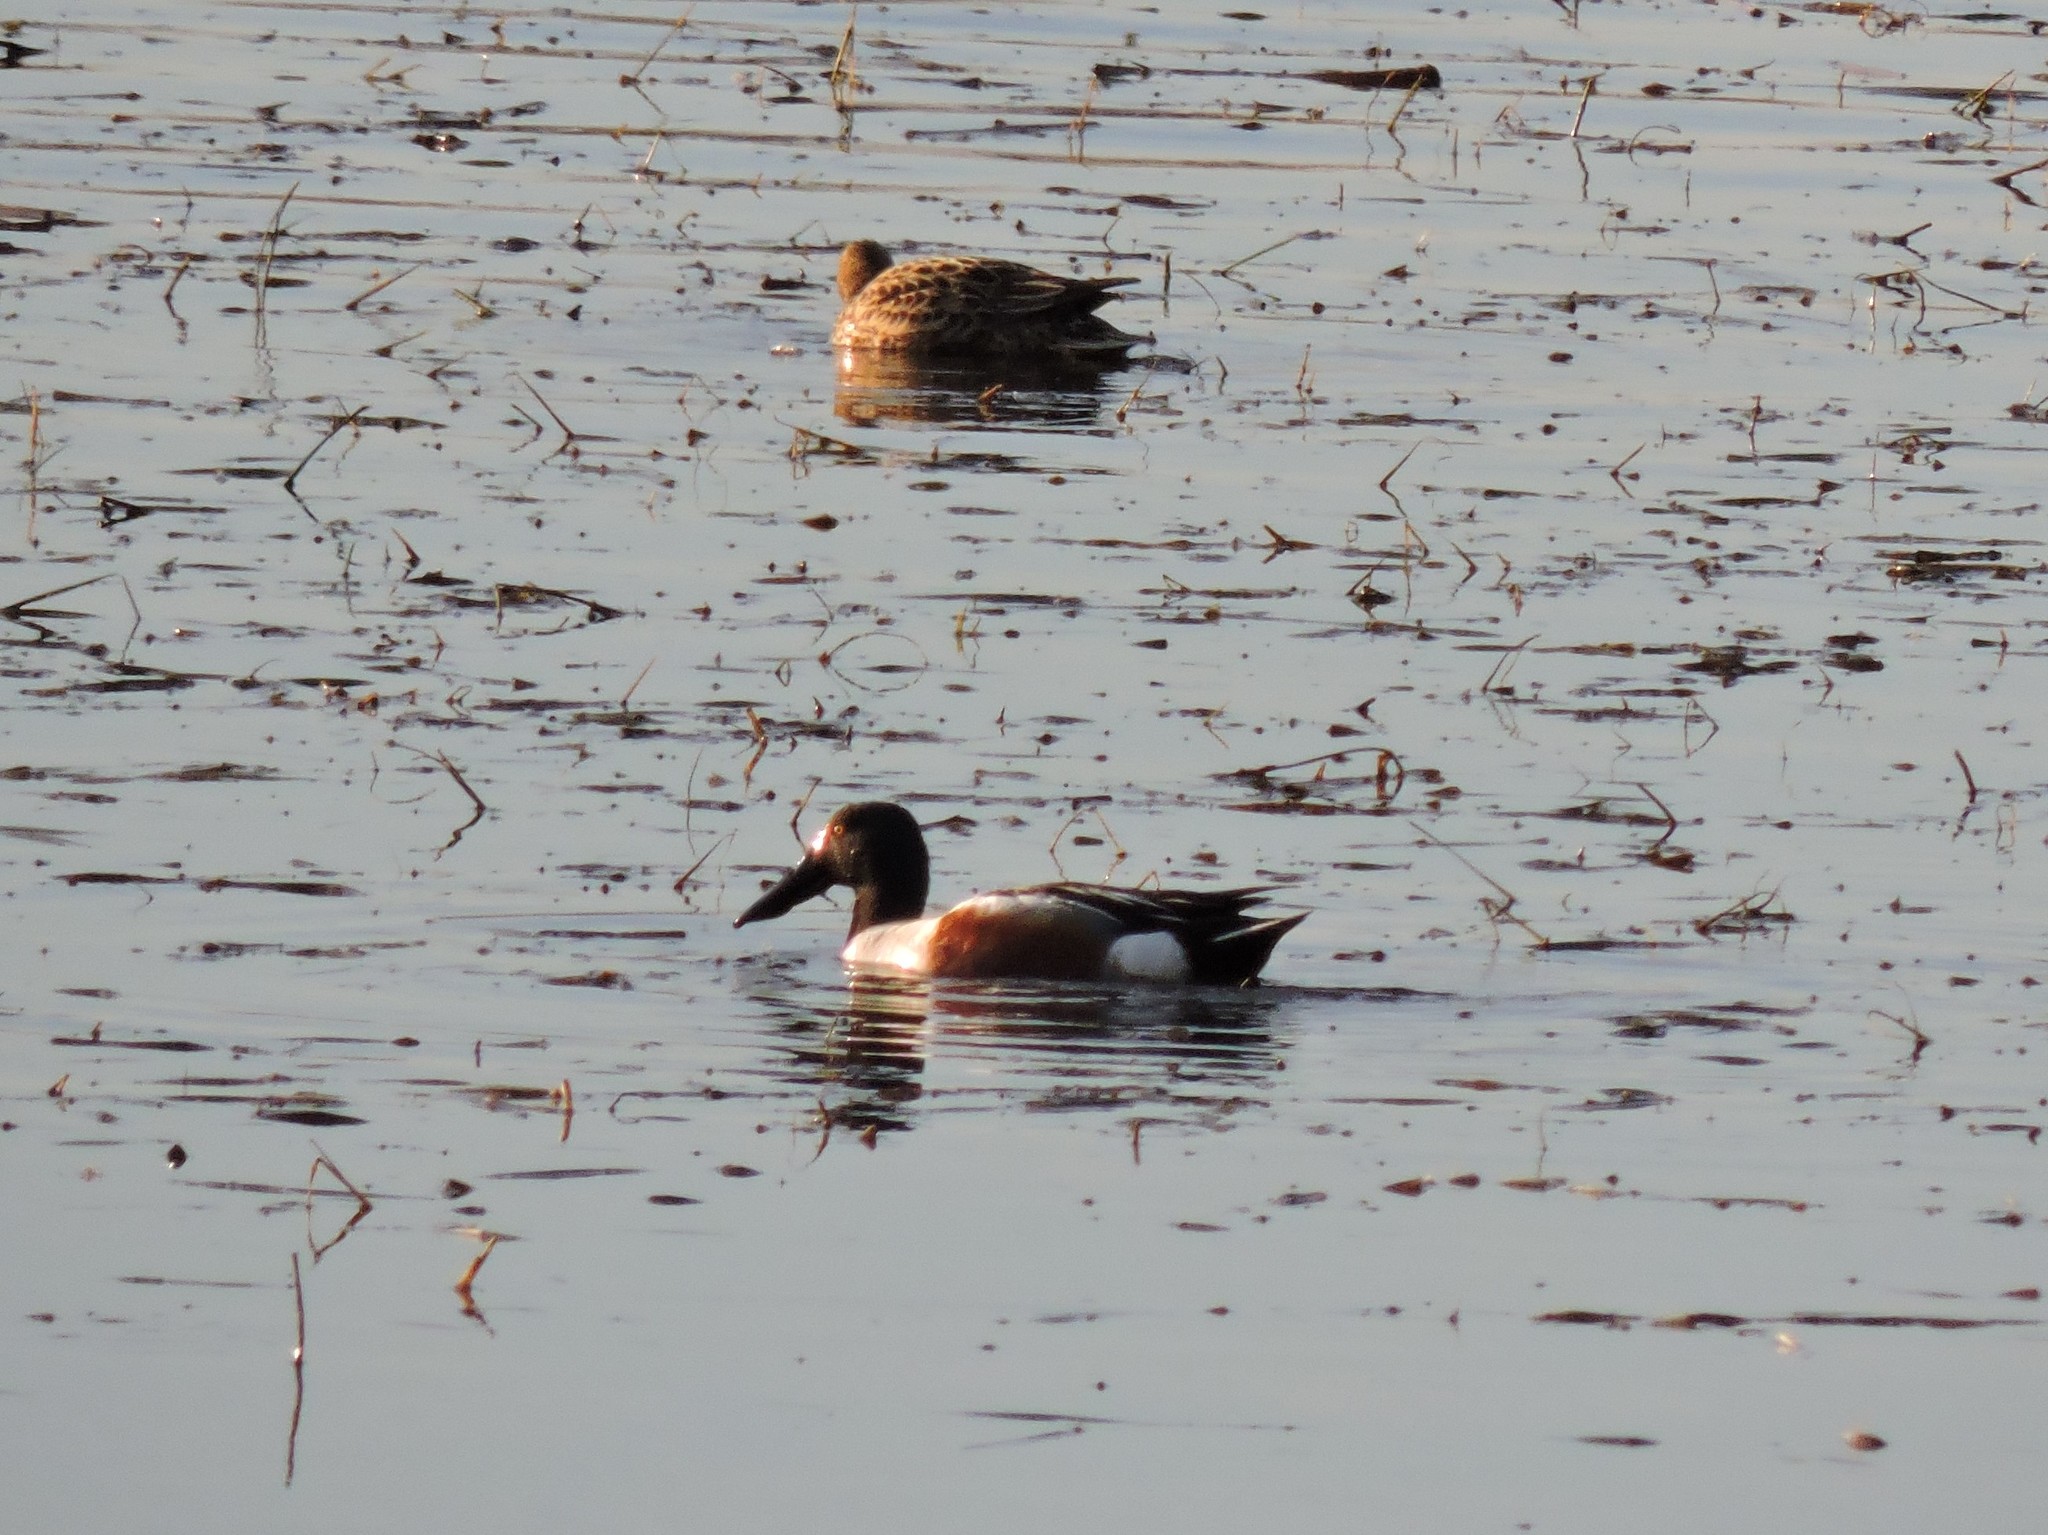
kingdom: Animalia
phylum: Chordata
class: Aves
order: Anseriformes
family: Anatidae
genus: Spatula
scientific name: Spatula clypeata
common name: Northern shoveler
